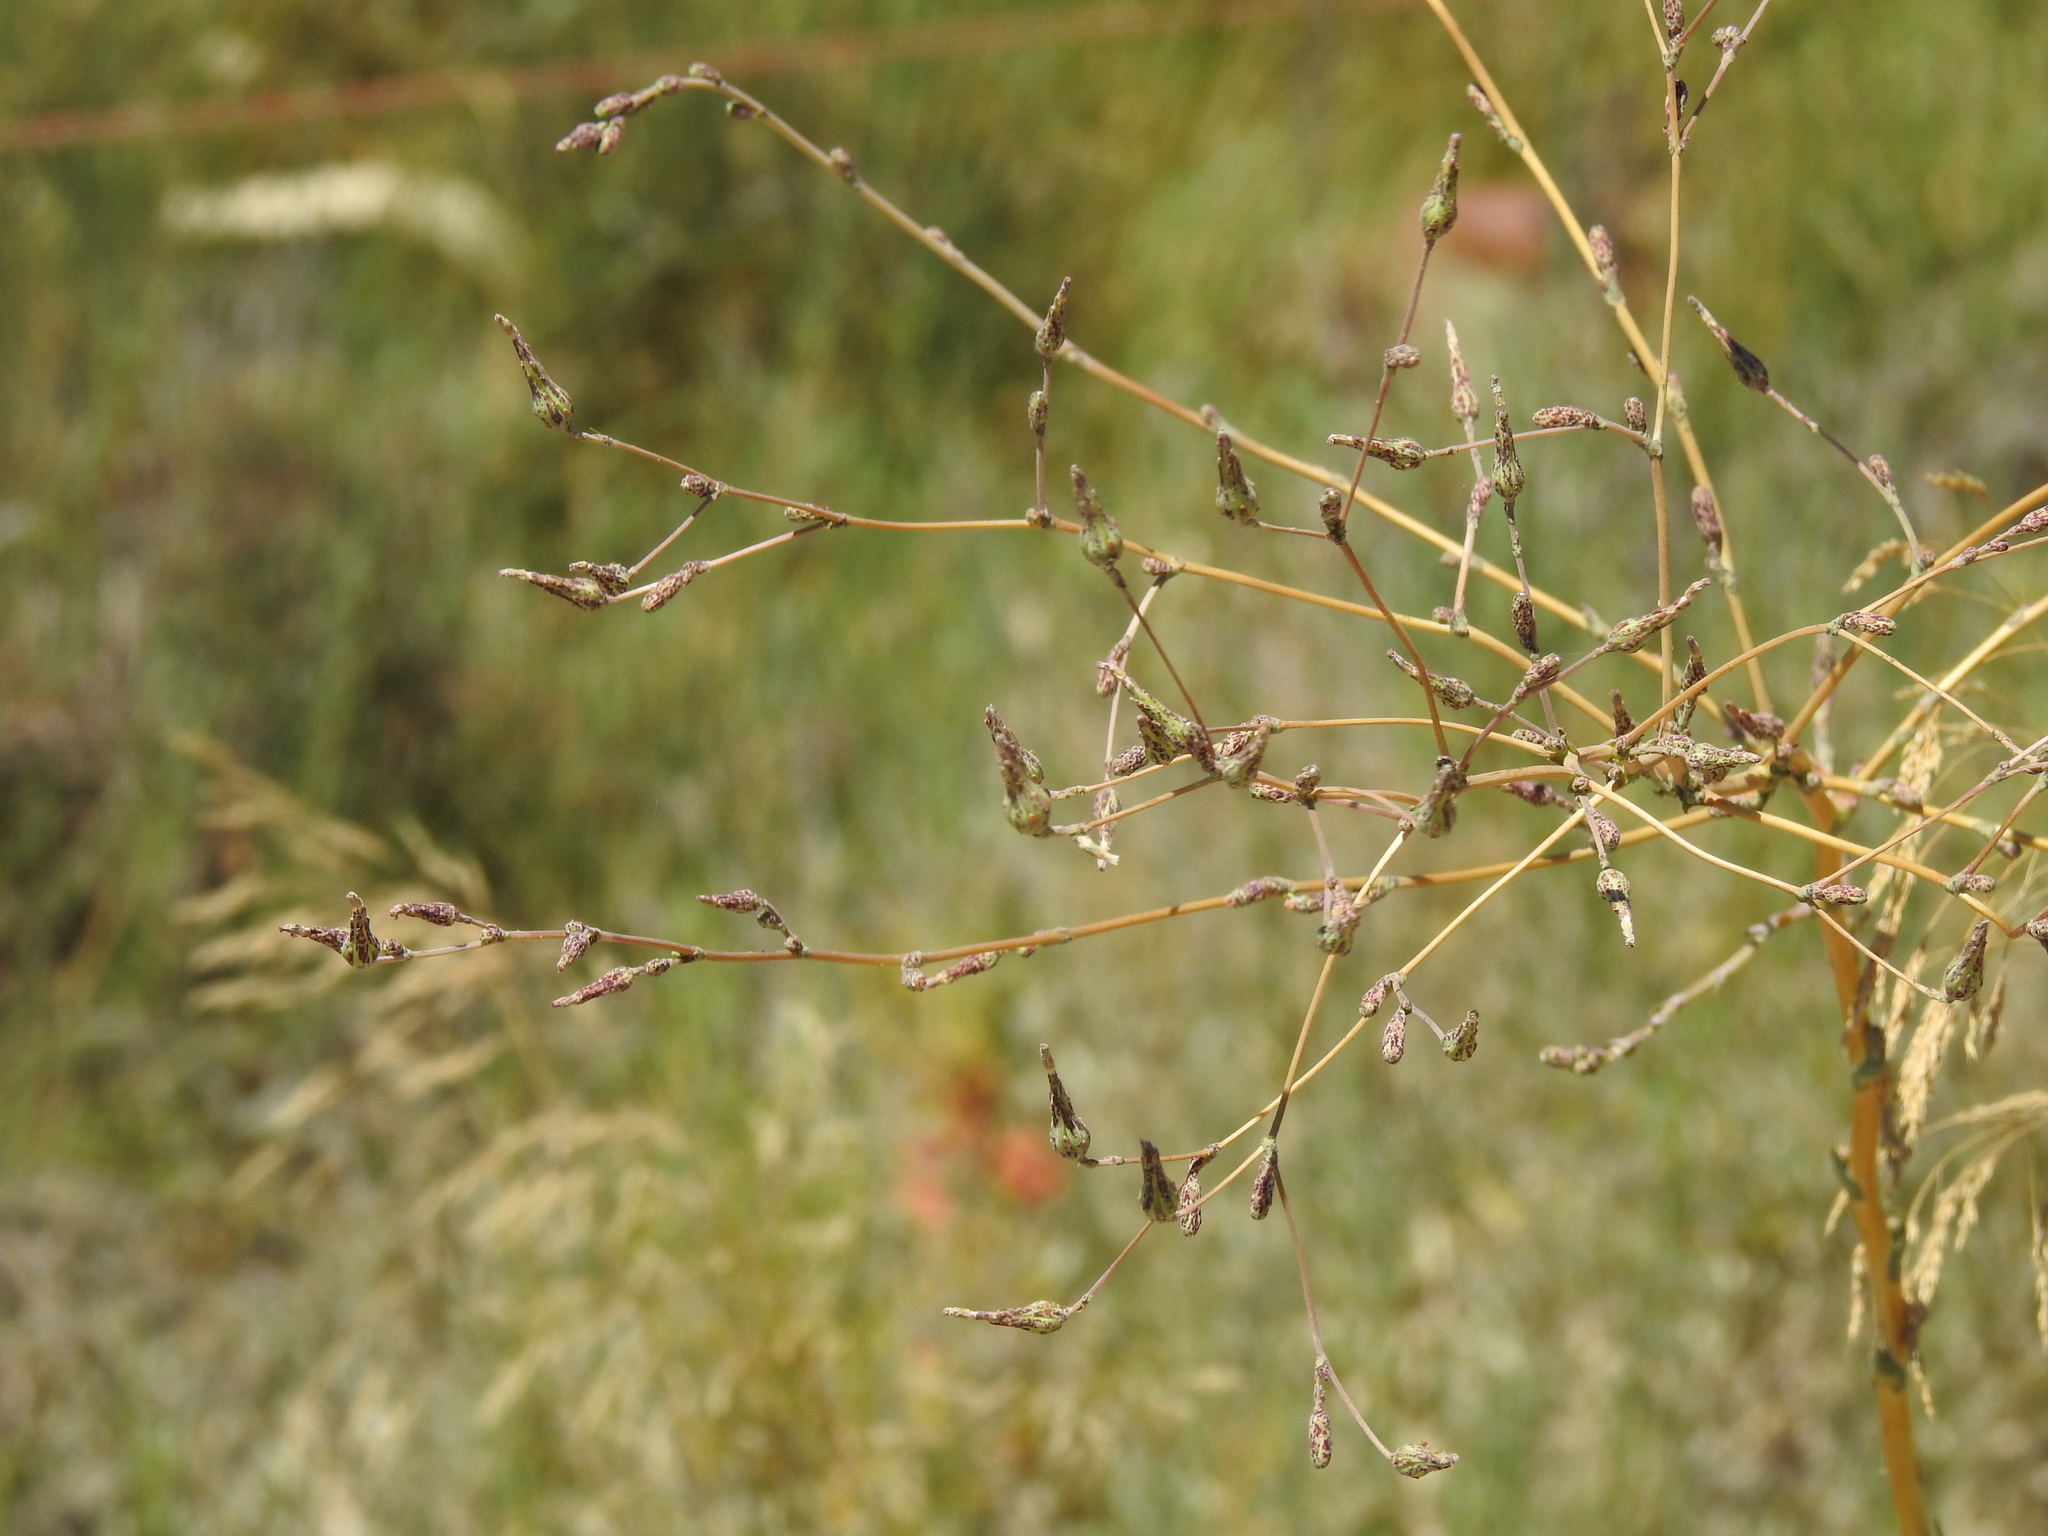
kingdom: Plantae
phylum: Tracheophyta
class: Magnoliopsida
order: Asterales
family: Asteraceae
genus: Lactuca
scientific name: Lactuca serriola
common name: Prickly lettuce
